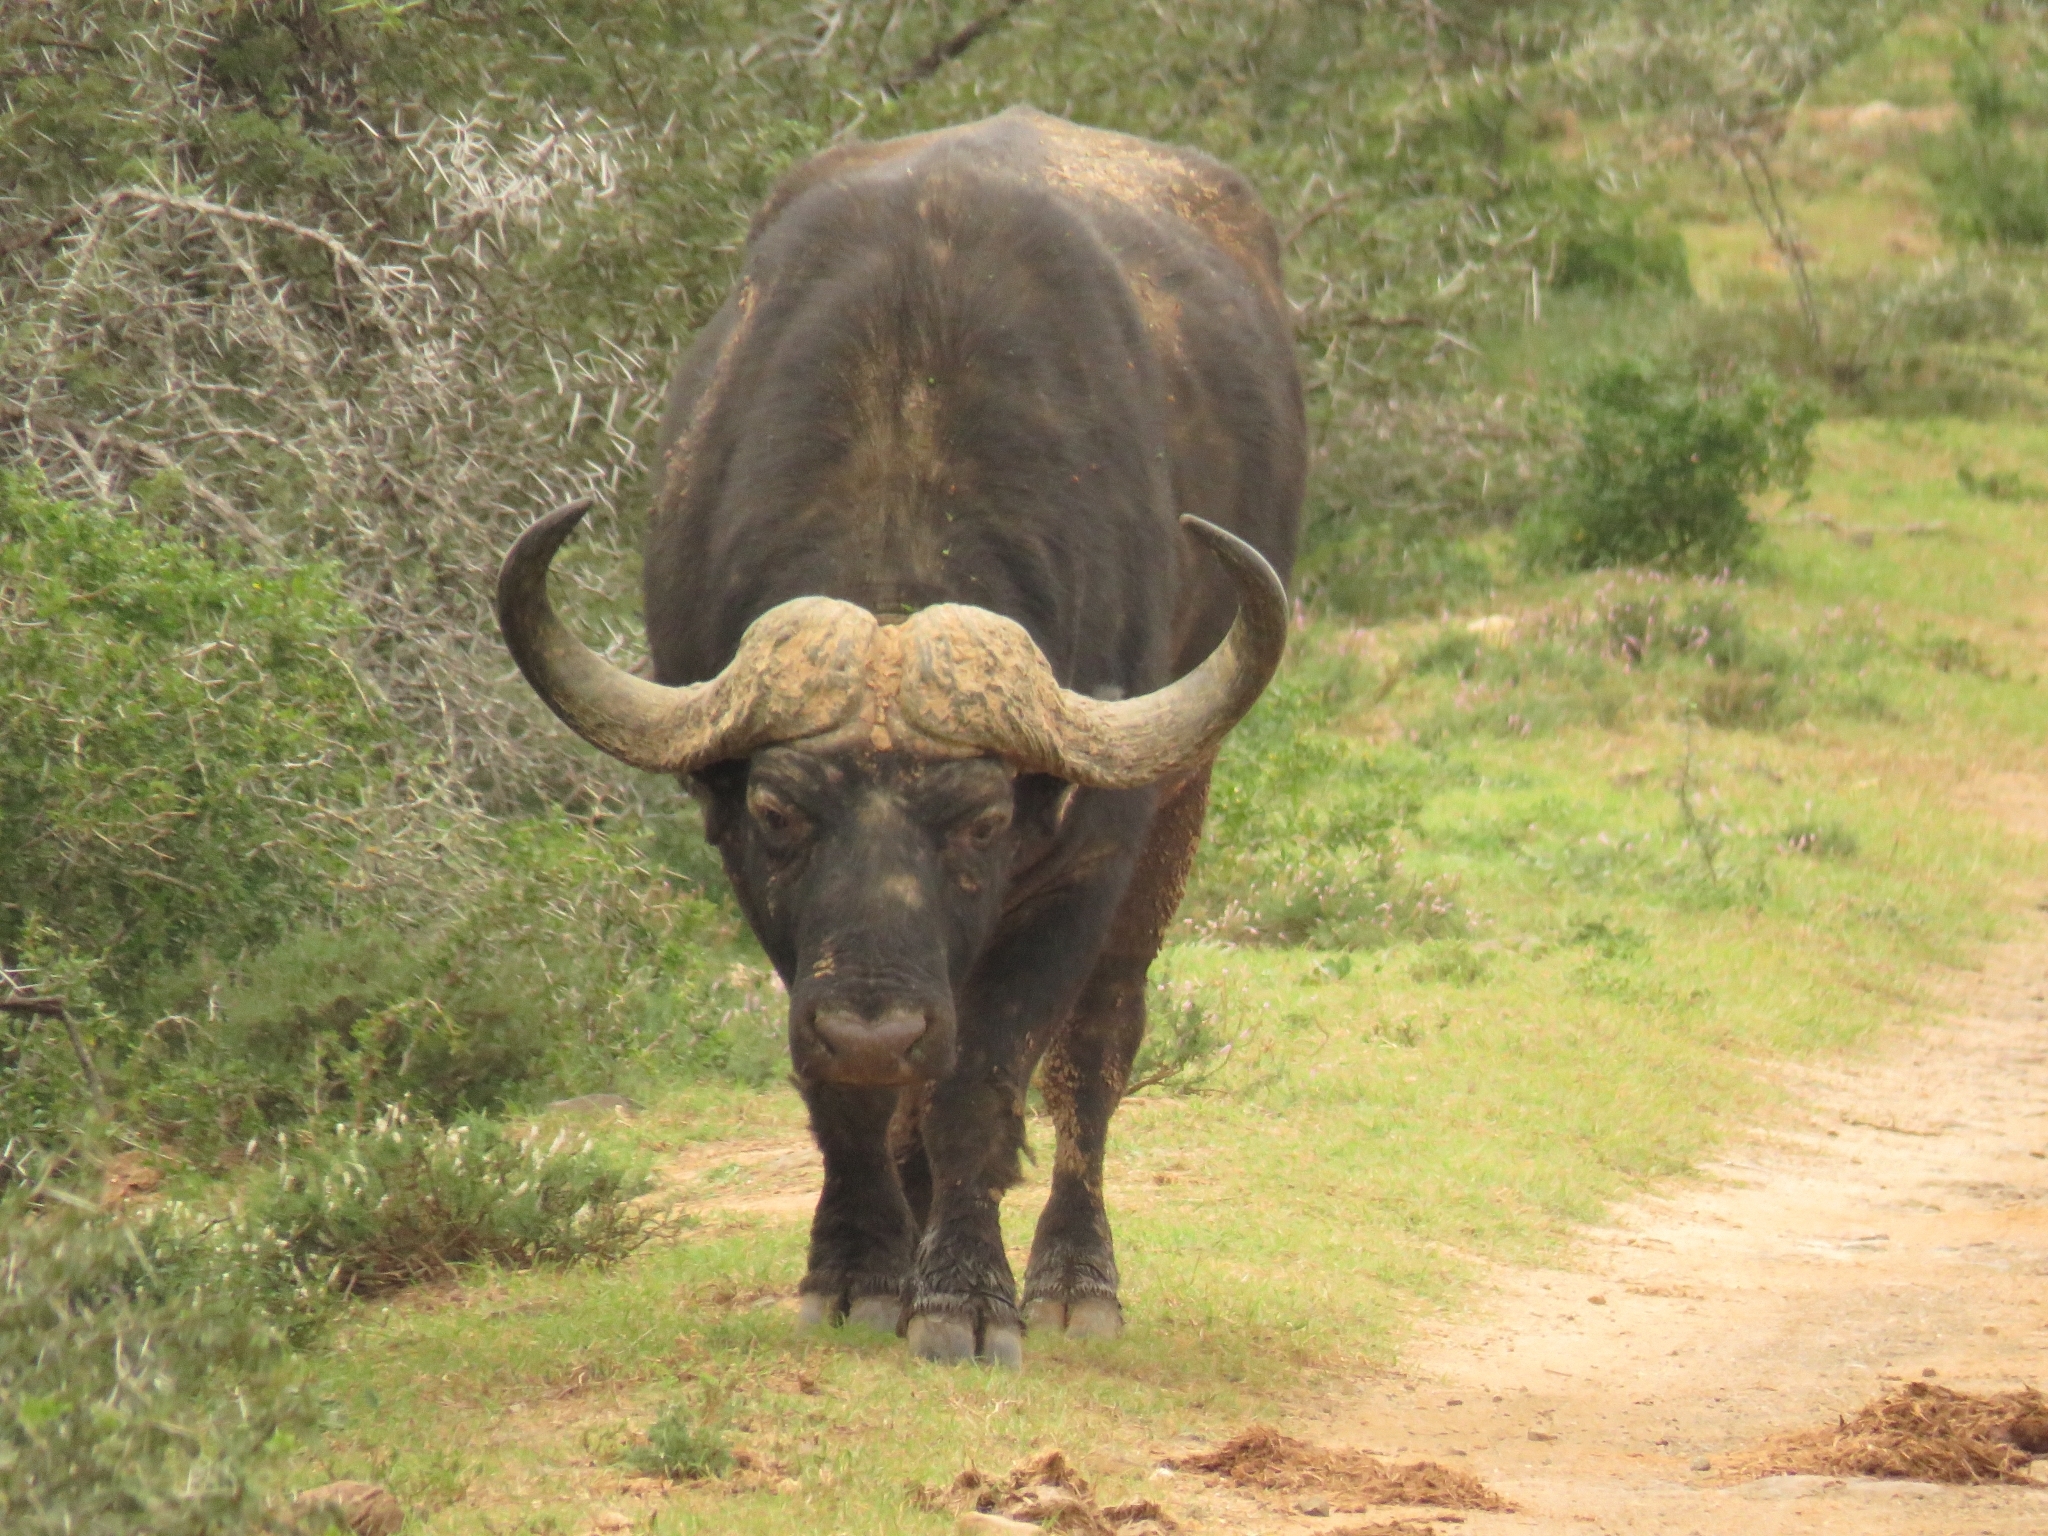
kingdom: Animalia
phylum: Chordata
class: Mammalia
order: Artiodactyla
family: Bovidae
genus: Syncerus
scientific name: Syncerus caffer
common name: African buffalo
